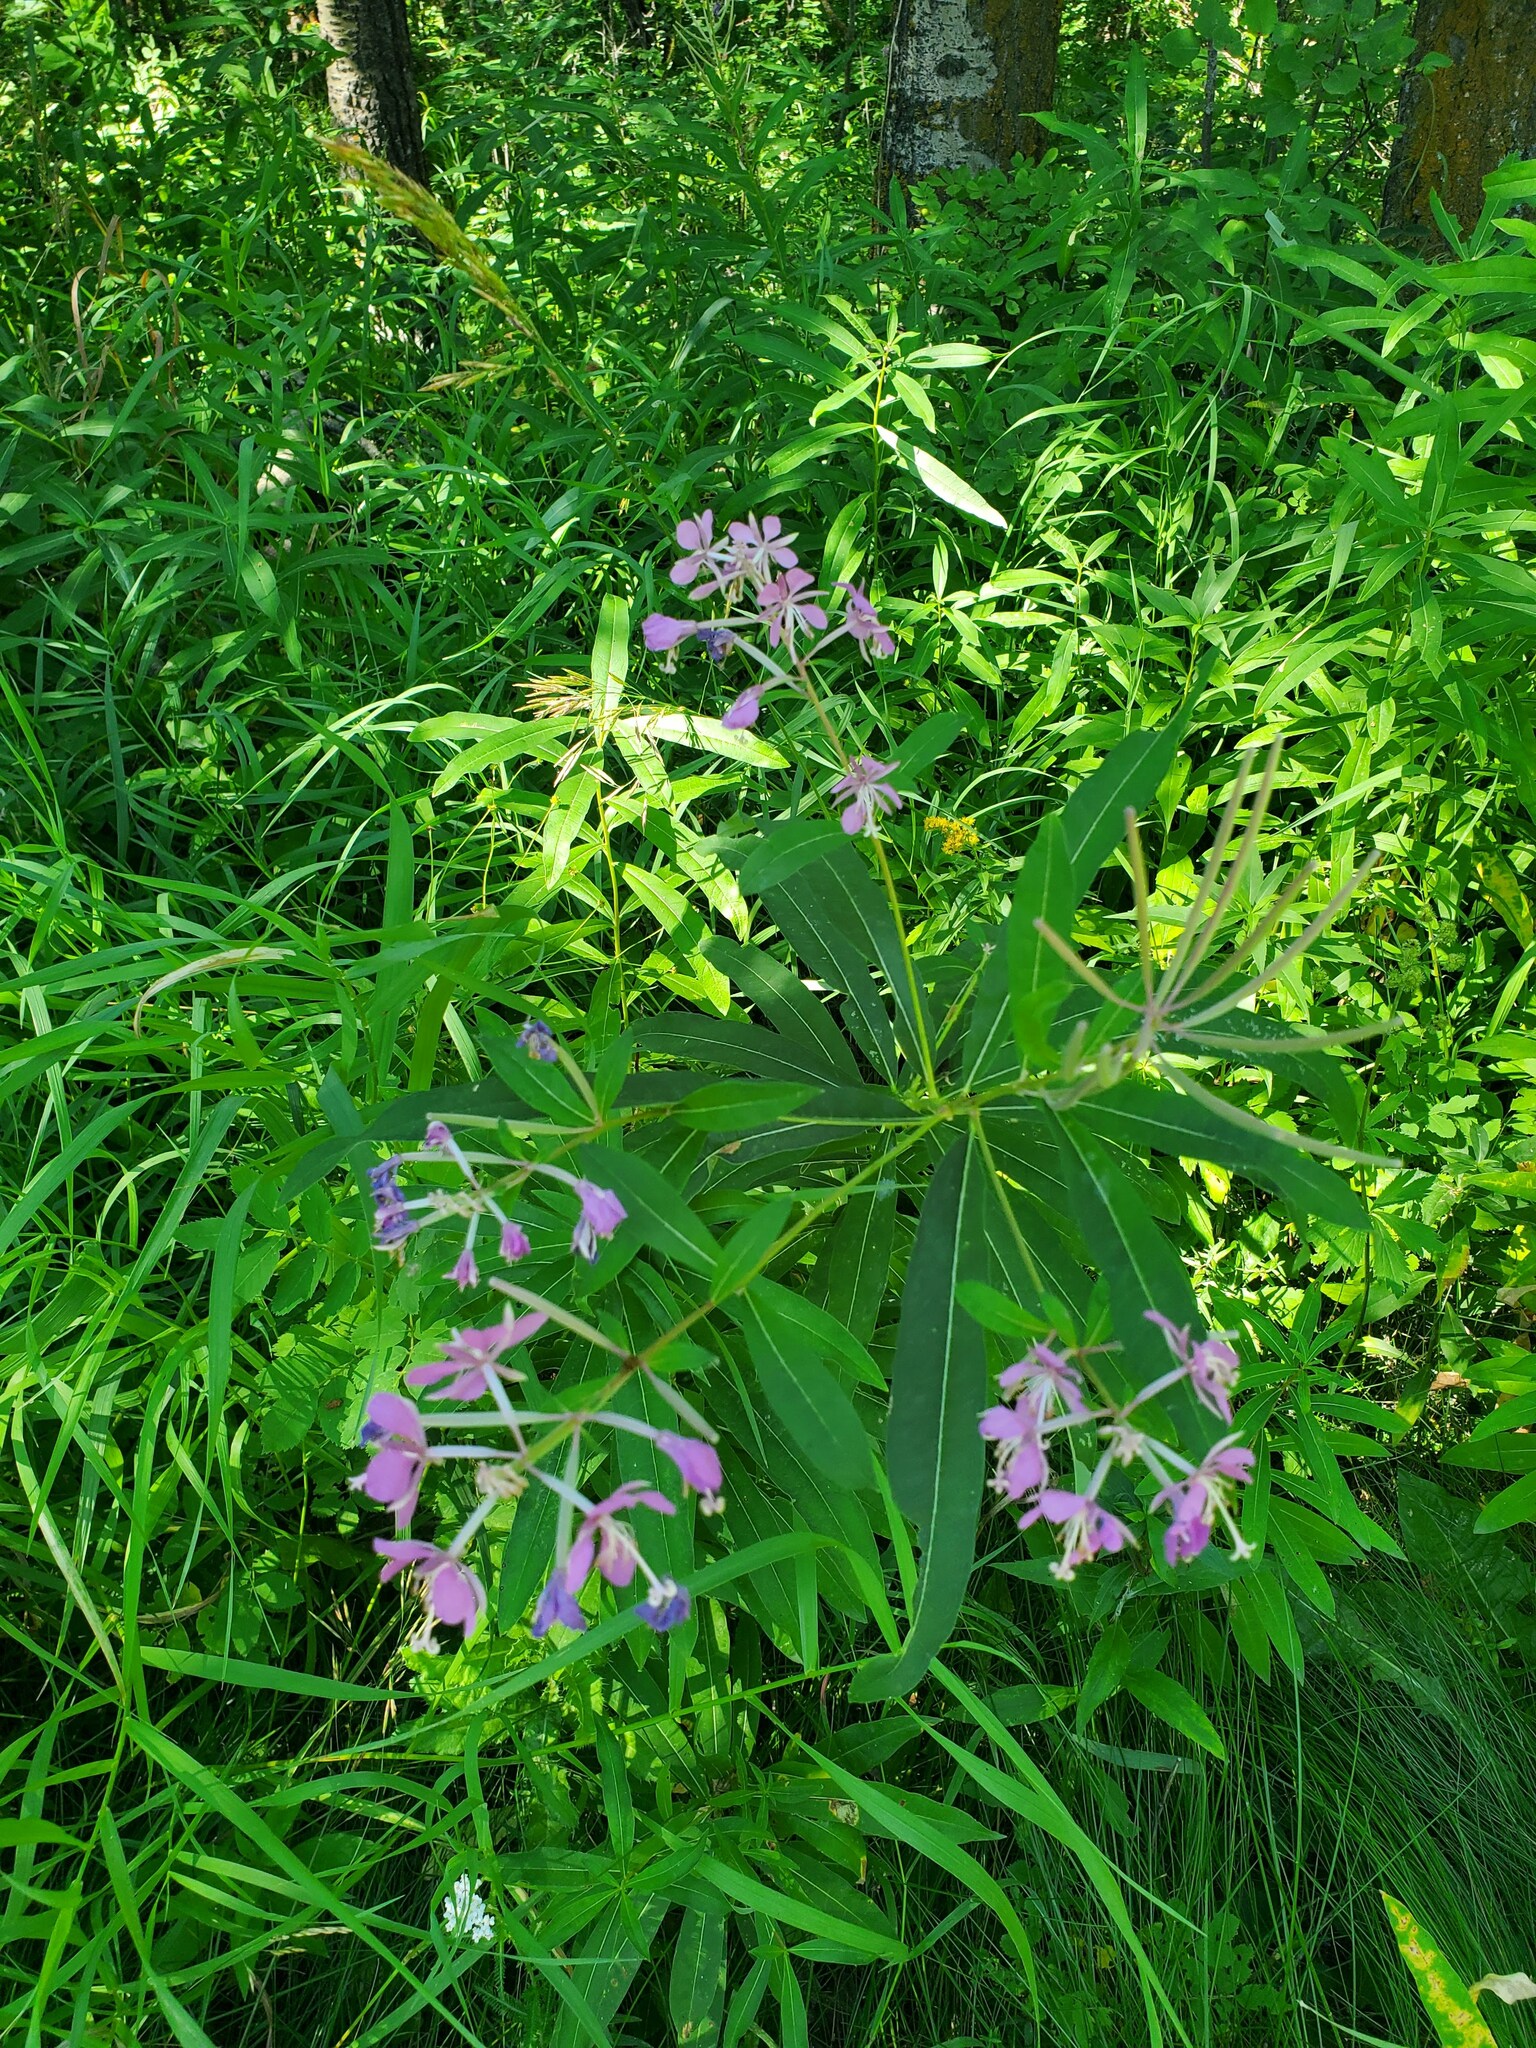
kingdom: Plantae
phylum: Tracheophyta
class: Magnoliopsida
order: Myrtales
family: Onagraceae
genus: Chamaenerion
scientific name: Chamaenerion angustifolium
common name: Fireweed
